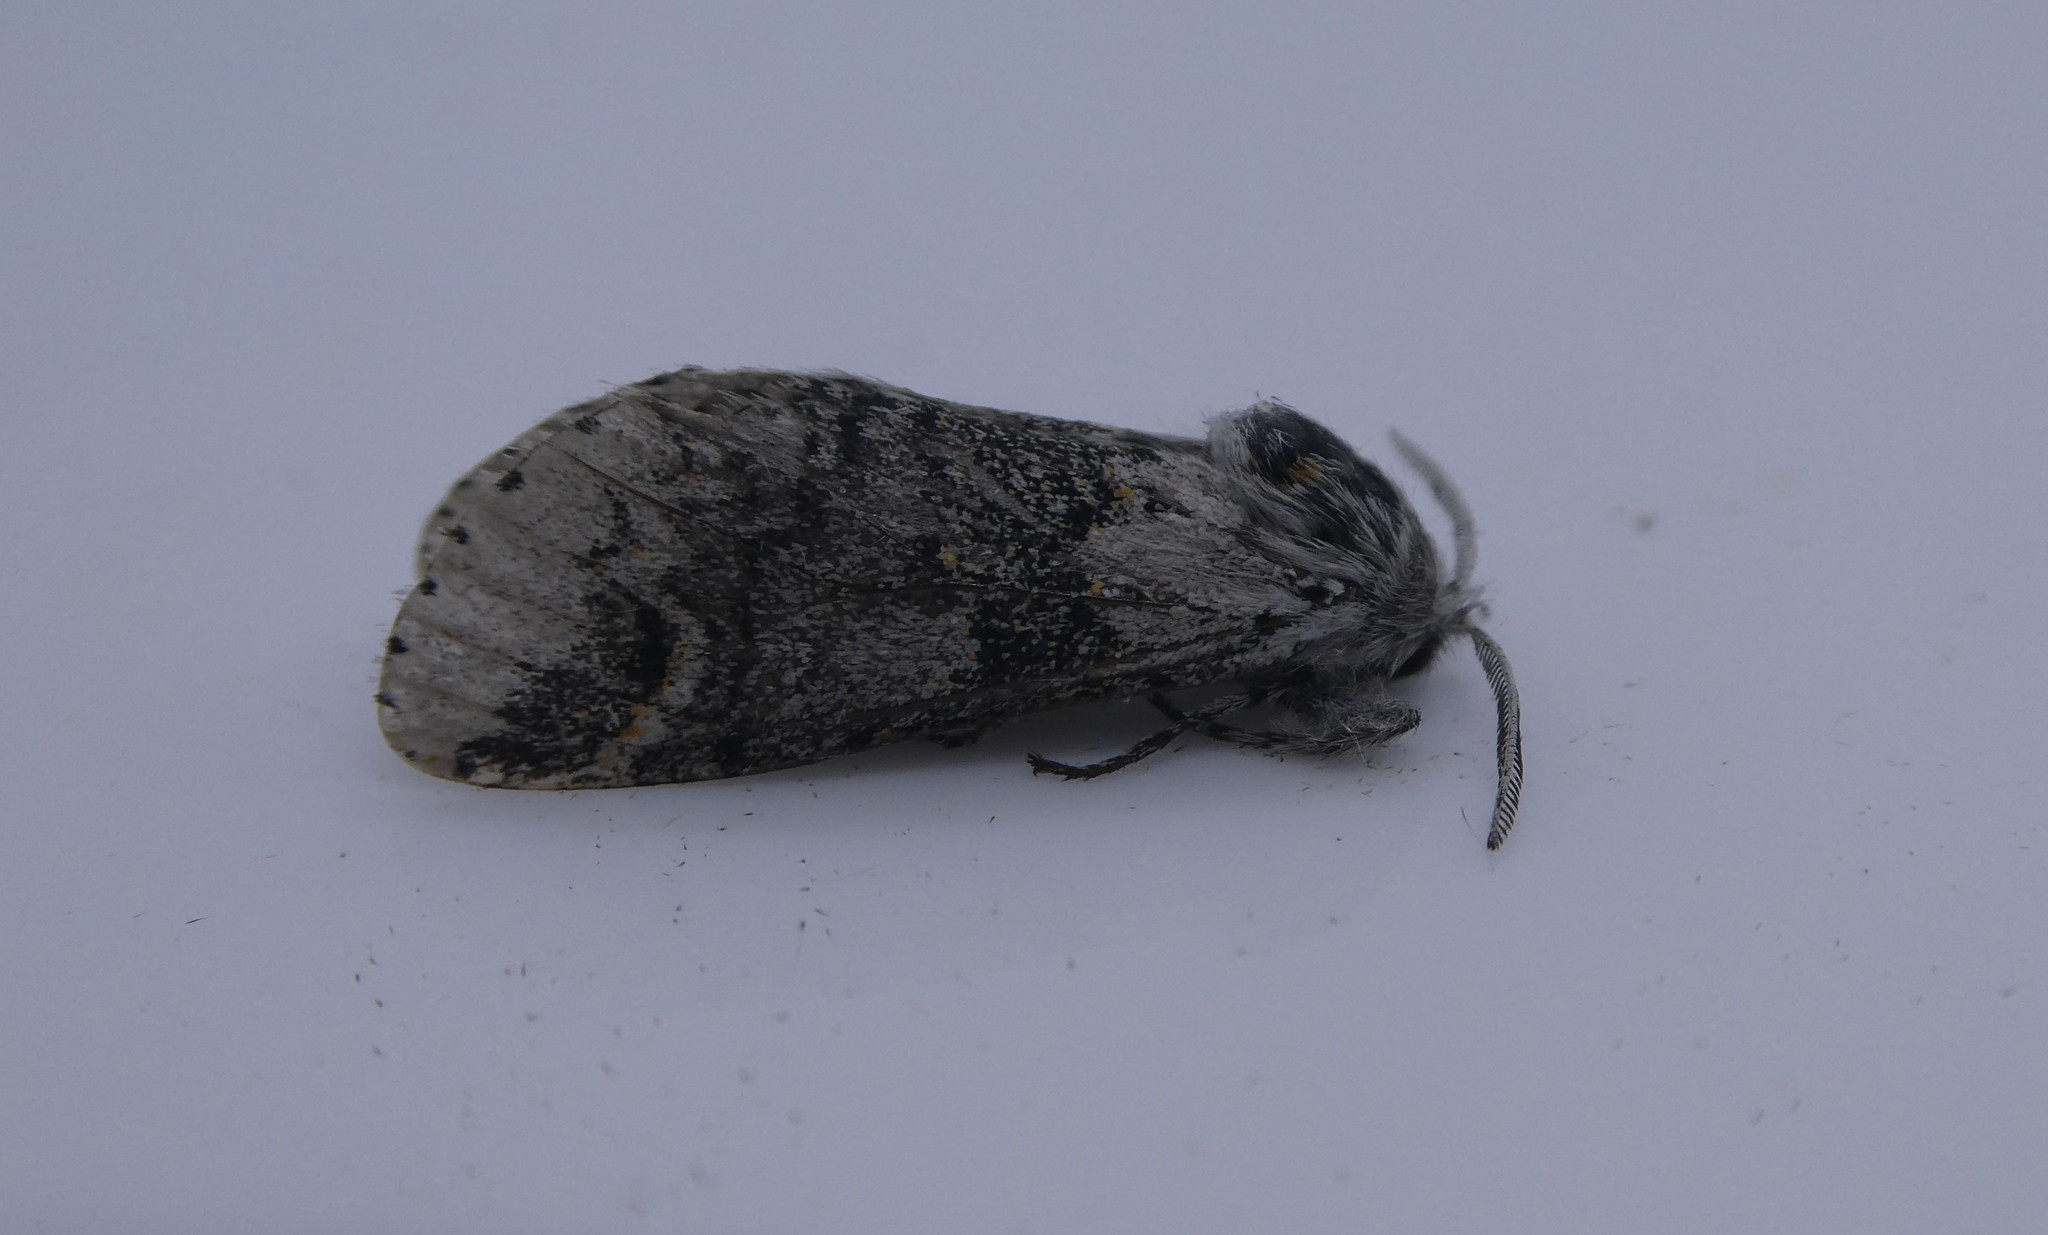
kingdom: Animalia
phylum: Arthropoda
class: Insecta
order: Lepidoptera
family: Notodontidae
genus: Furcula
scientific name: Furcula occidentalis
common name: Western furcula moth
